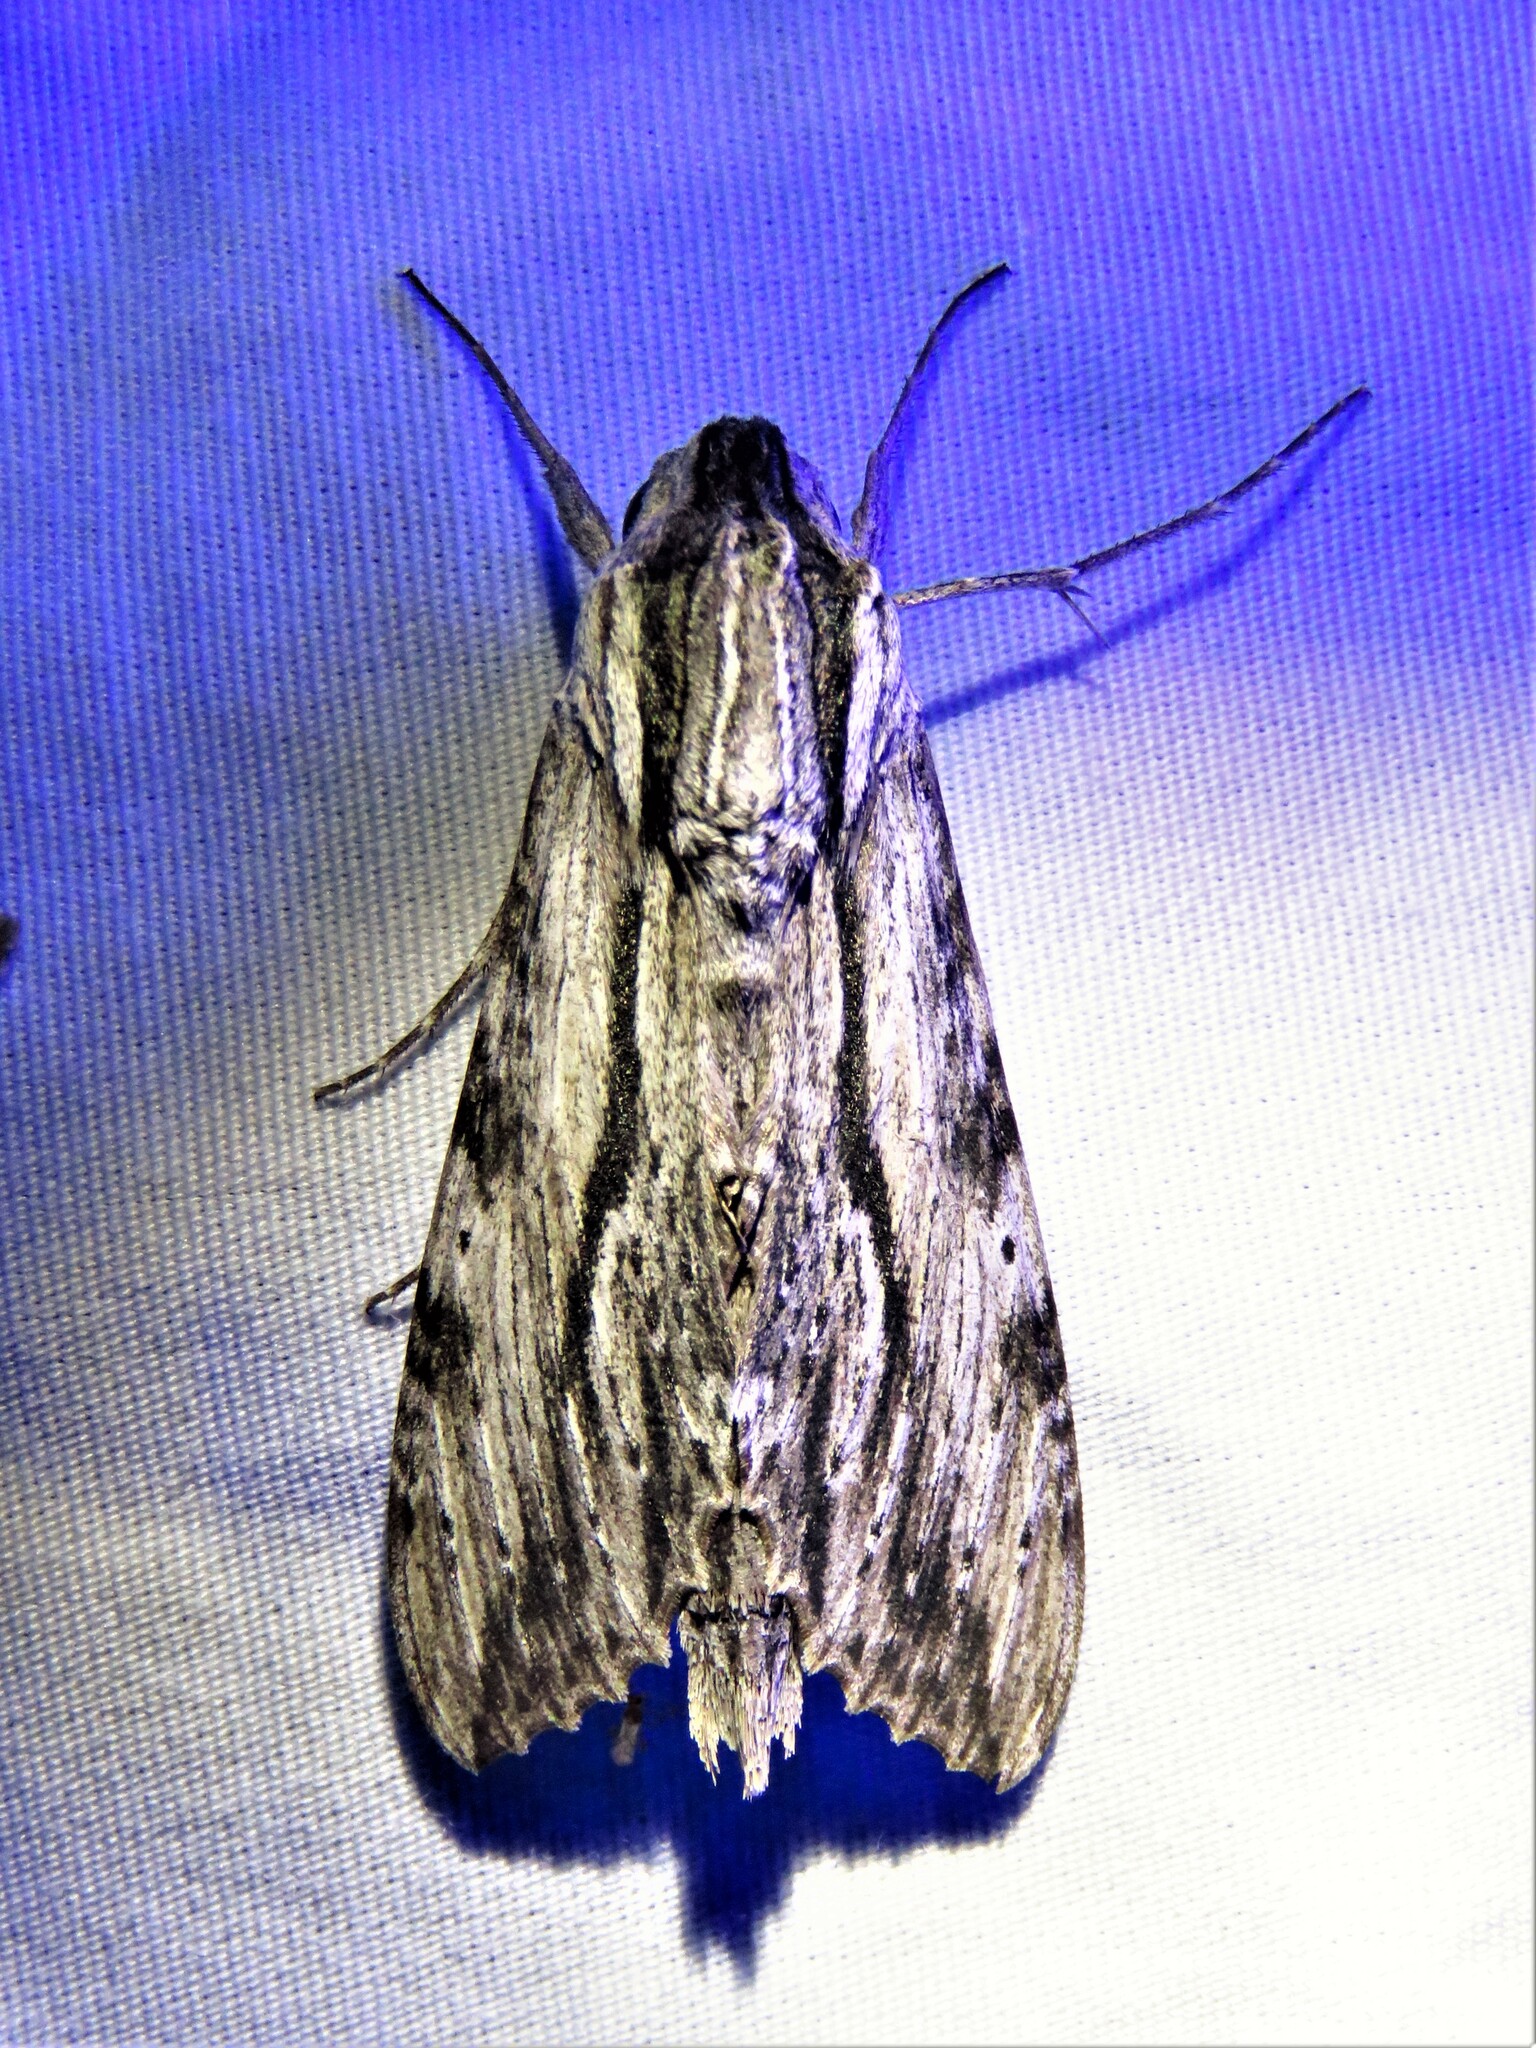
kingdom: Animalia
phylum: Arthropoda
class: Insecta
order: Lepidoptera
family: Sphingidae
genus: Erinnyis
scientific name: Erinnyis obscura
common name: Obscure sphinx
